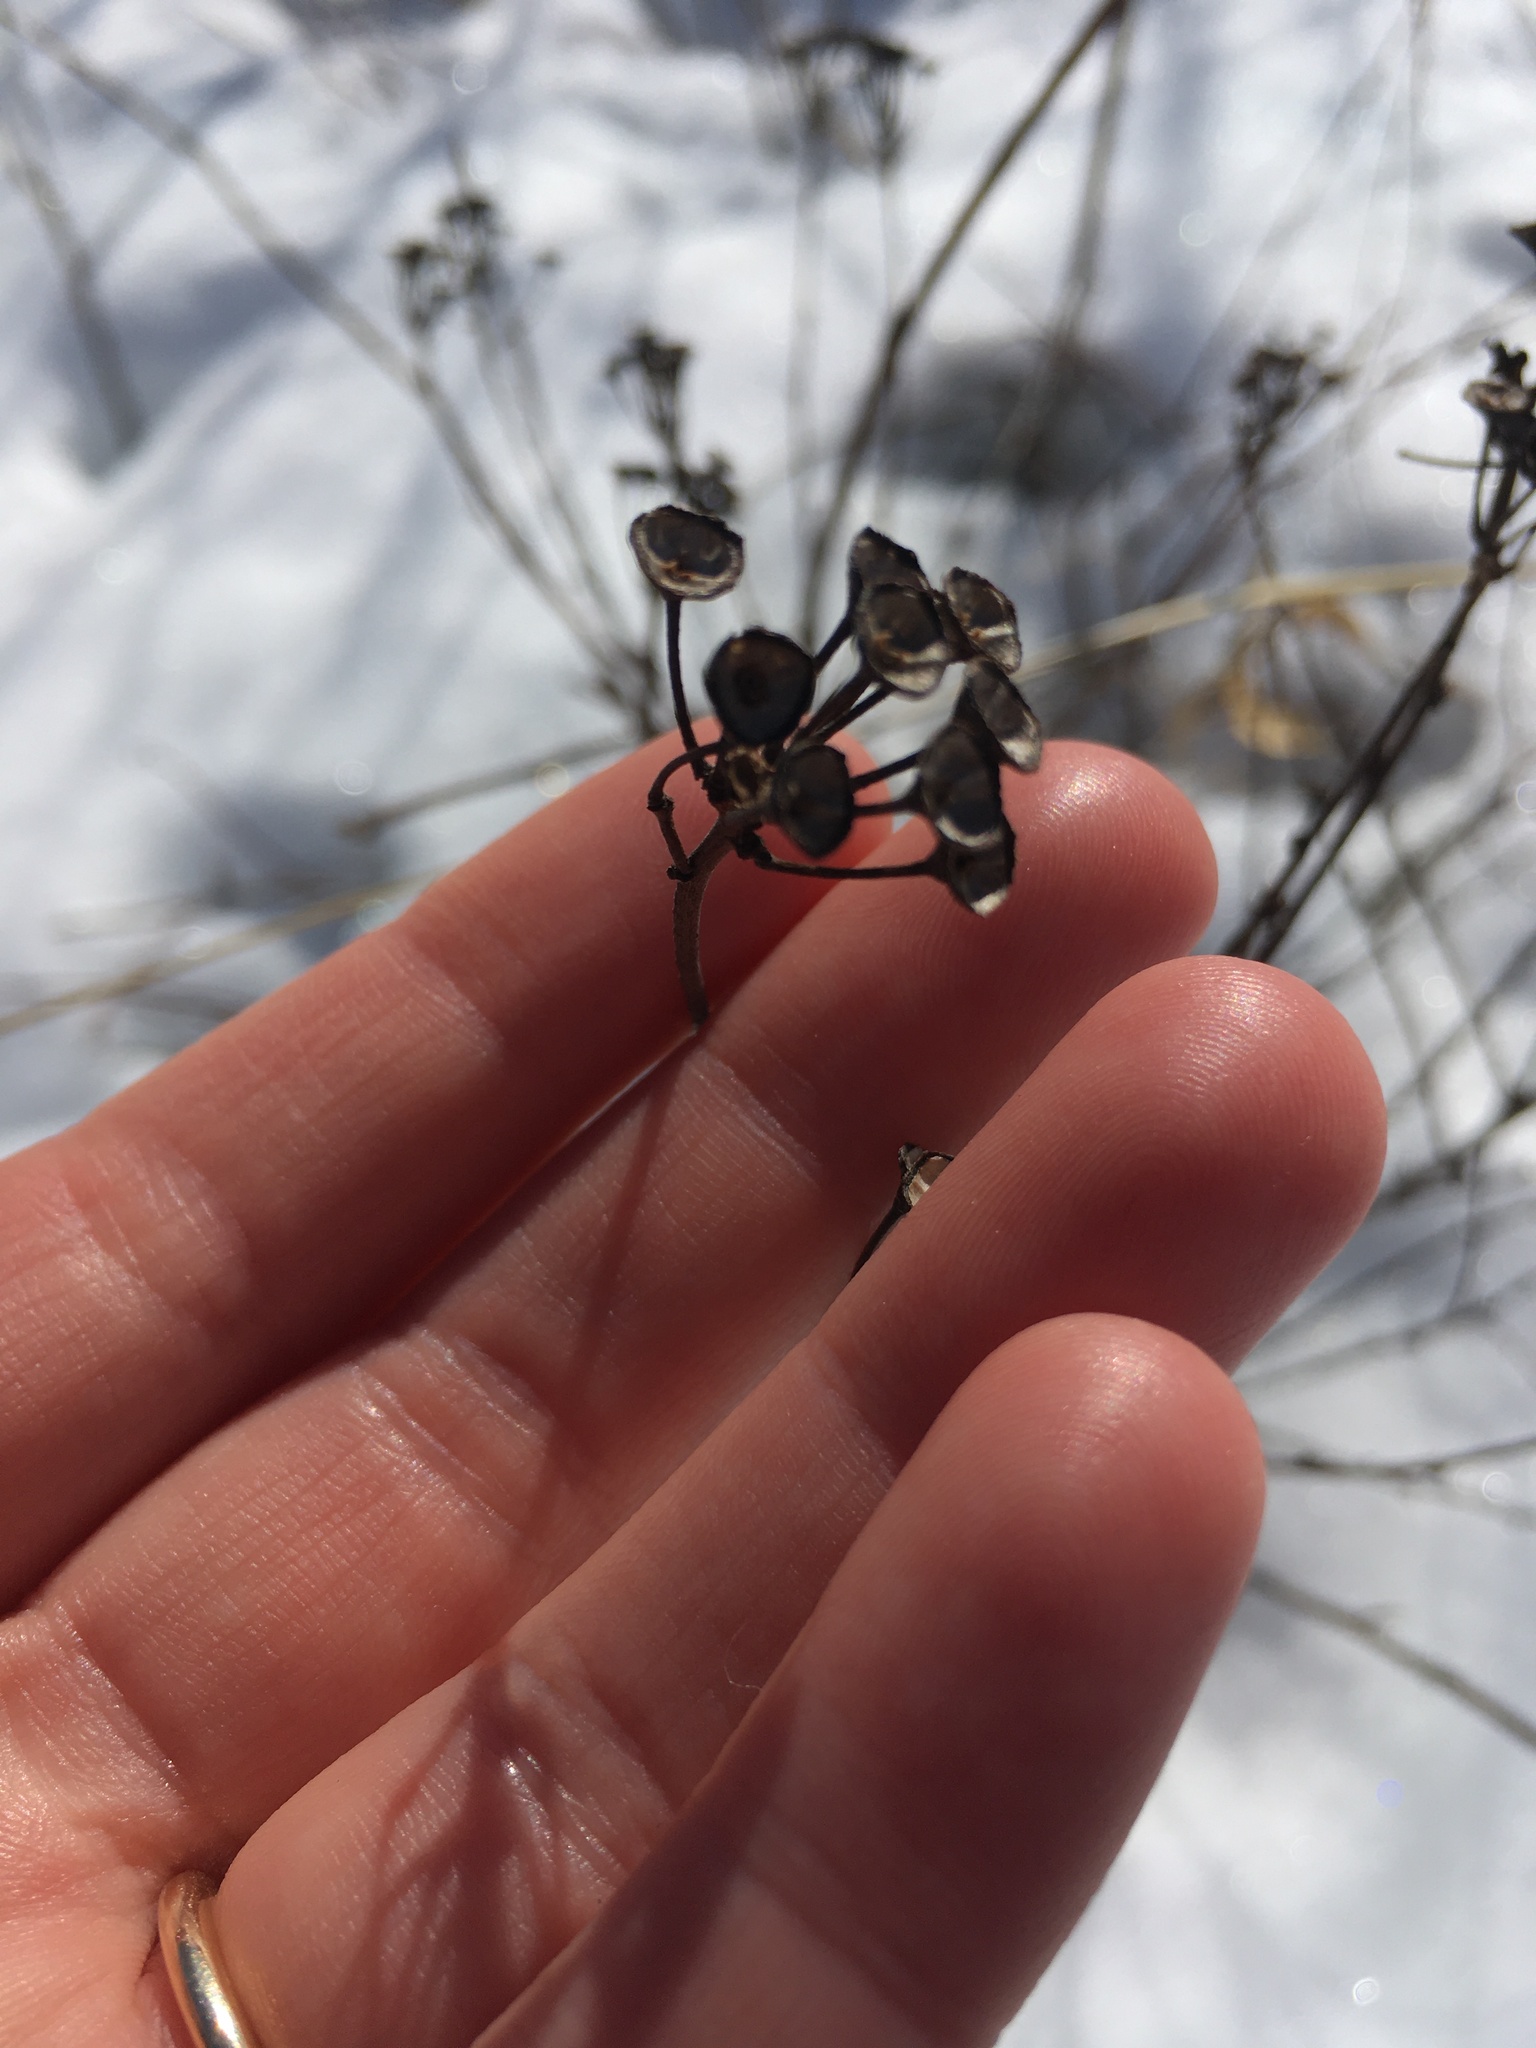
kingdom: Plantae
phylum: Tracheophyta
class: Magnoliopsida
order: Rosales
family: Rhamnaceae
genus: Ceanothus
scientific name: Ceanothus americanus
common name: Redroot
